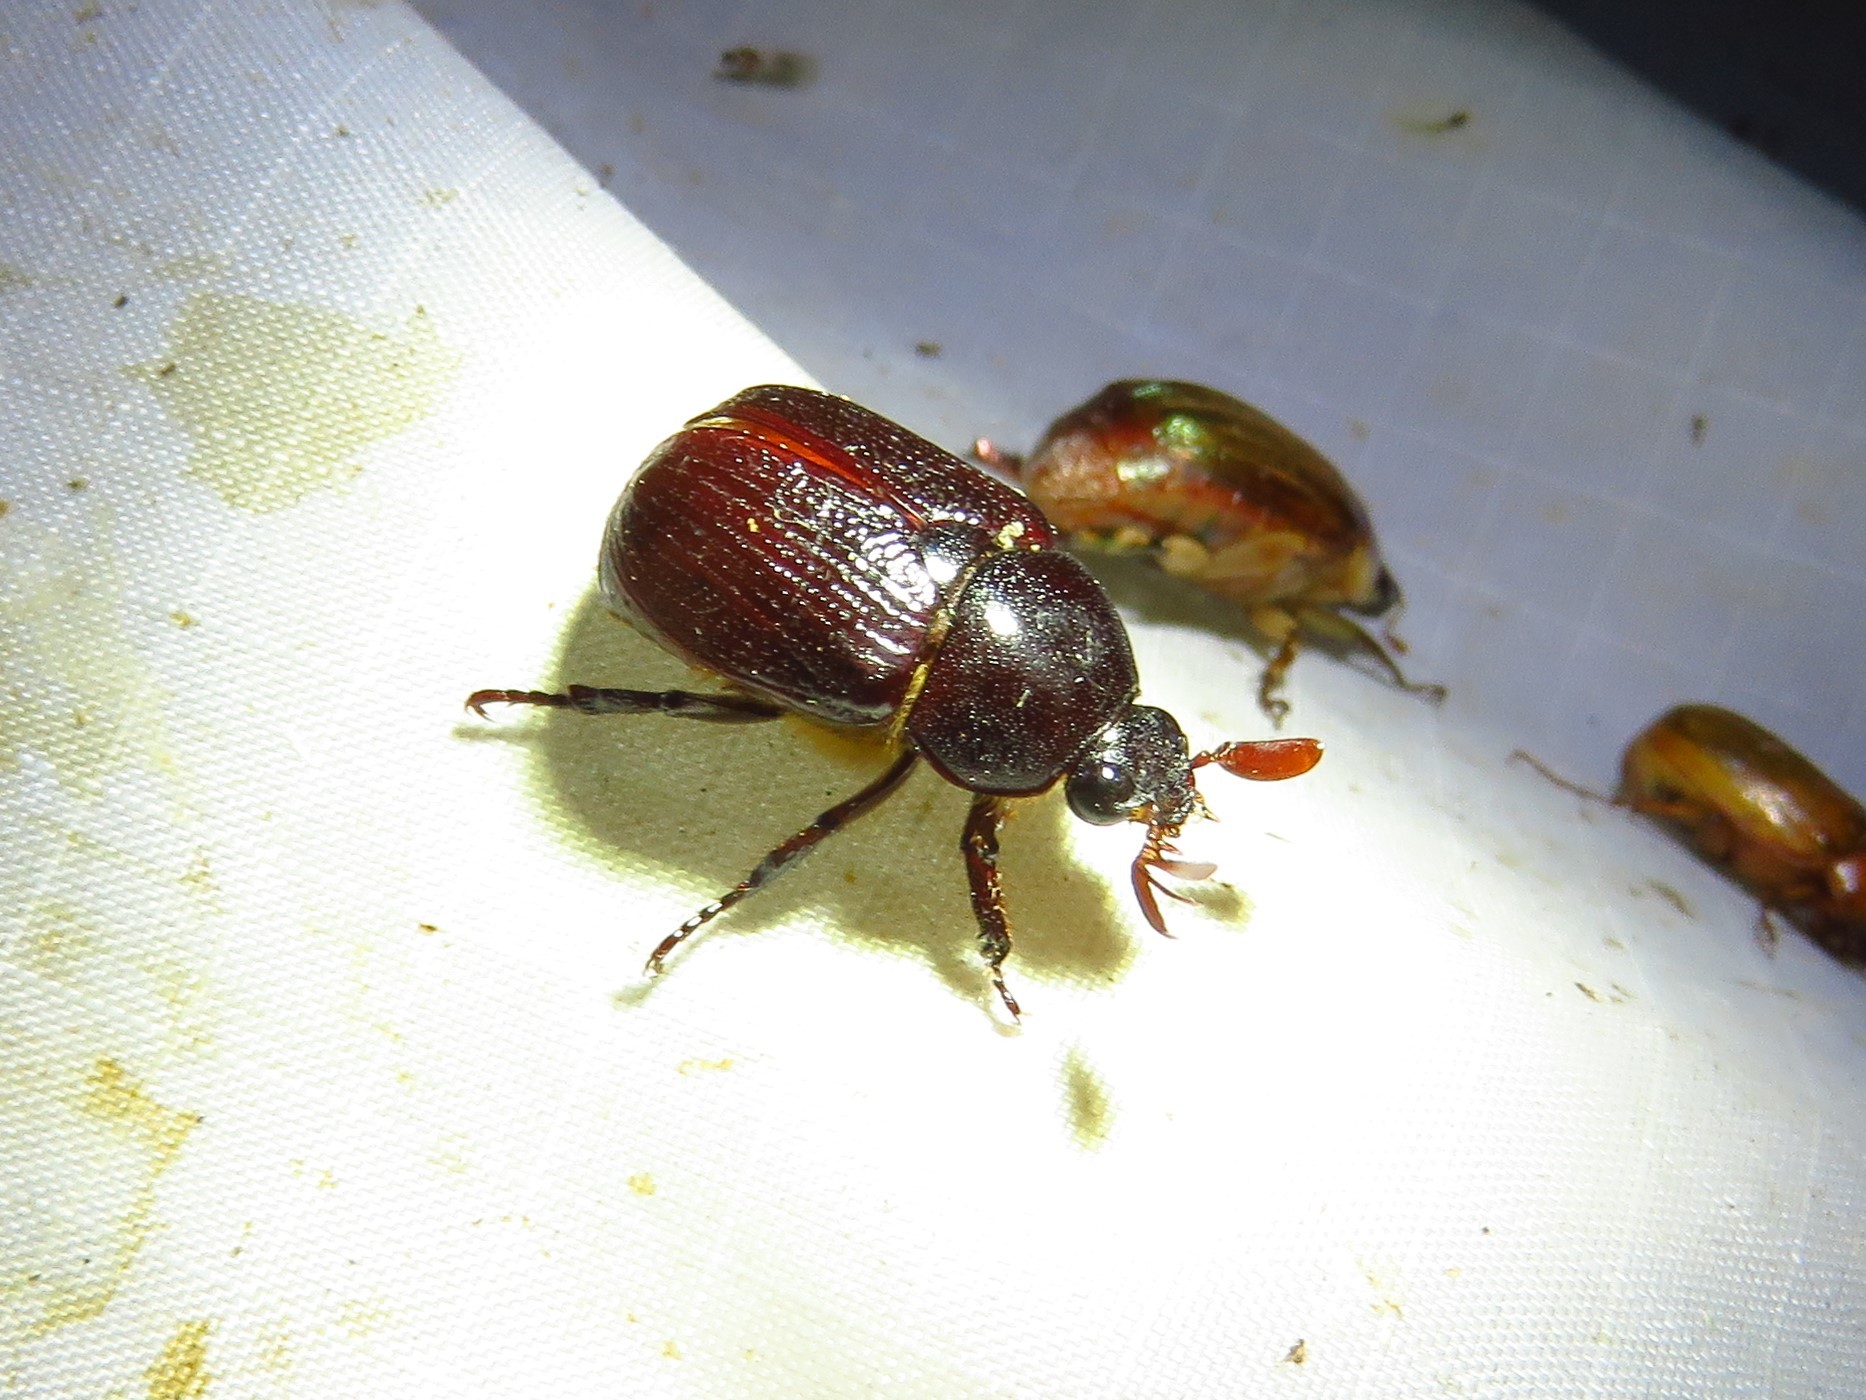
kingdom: Animalia
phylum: Arthropoda
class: Insecta
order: Coleoptera
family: Scarabaeidae
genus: Parastasia
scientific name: Parastasia brevipes
